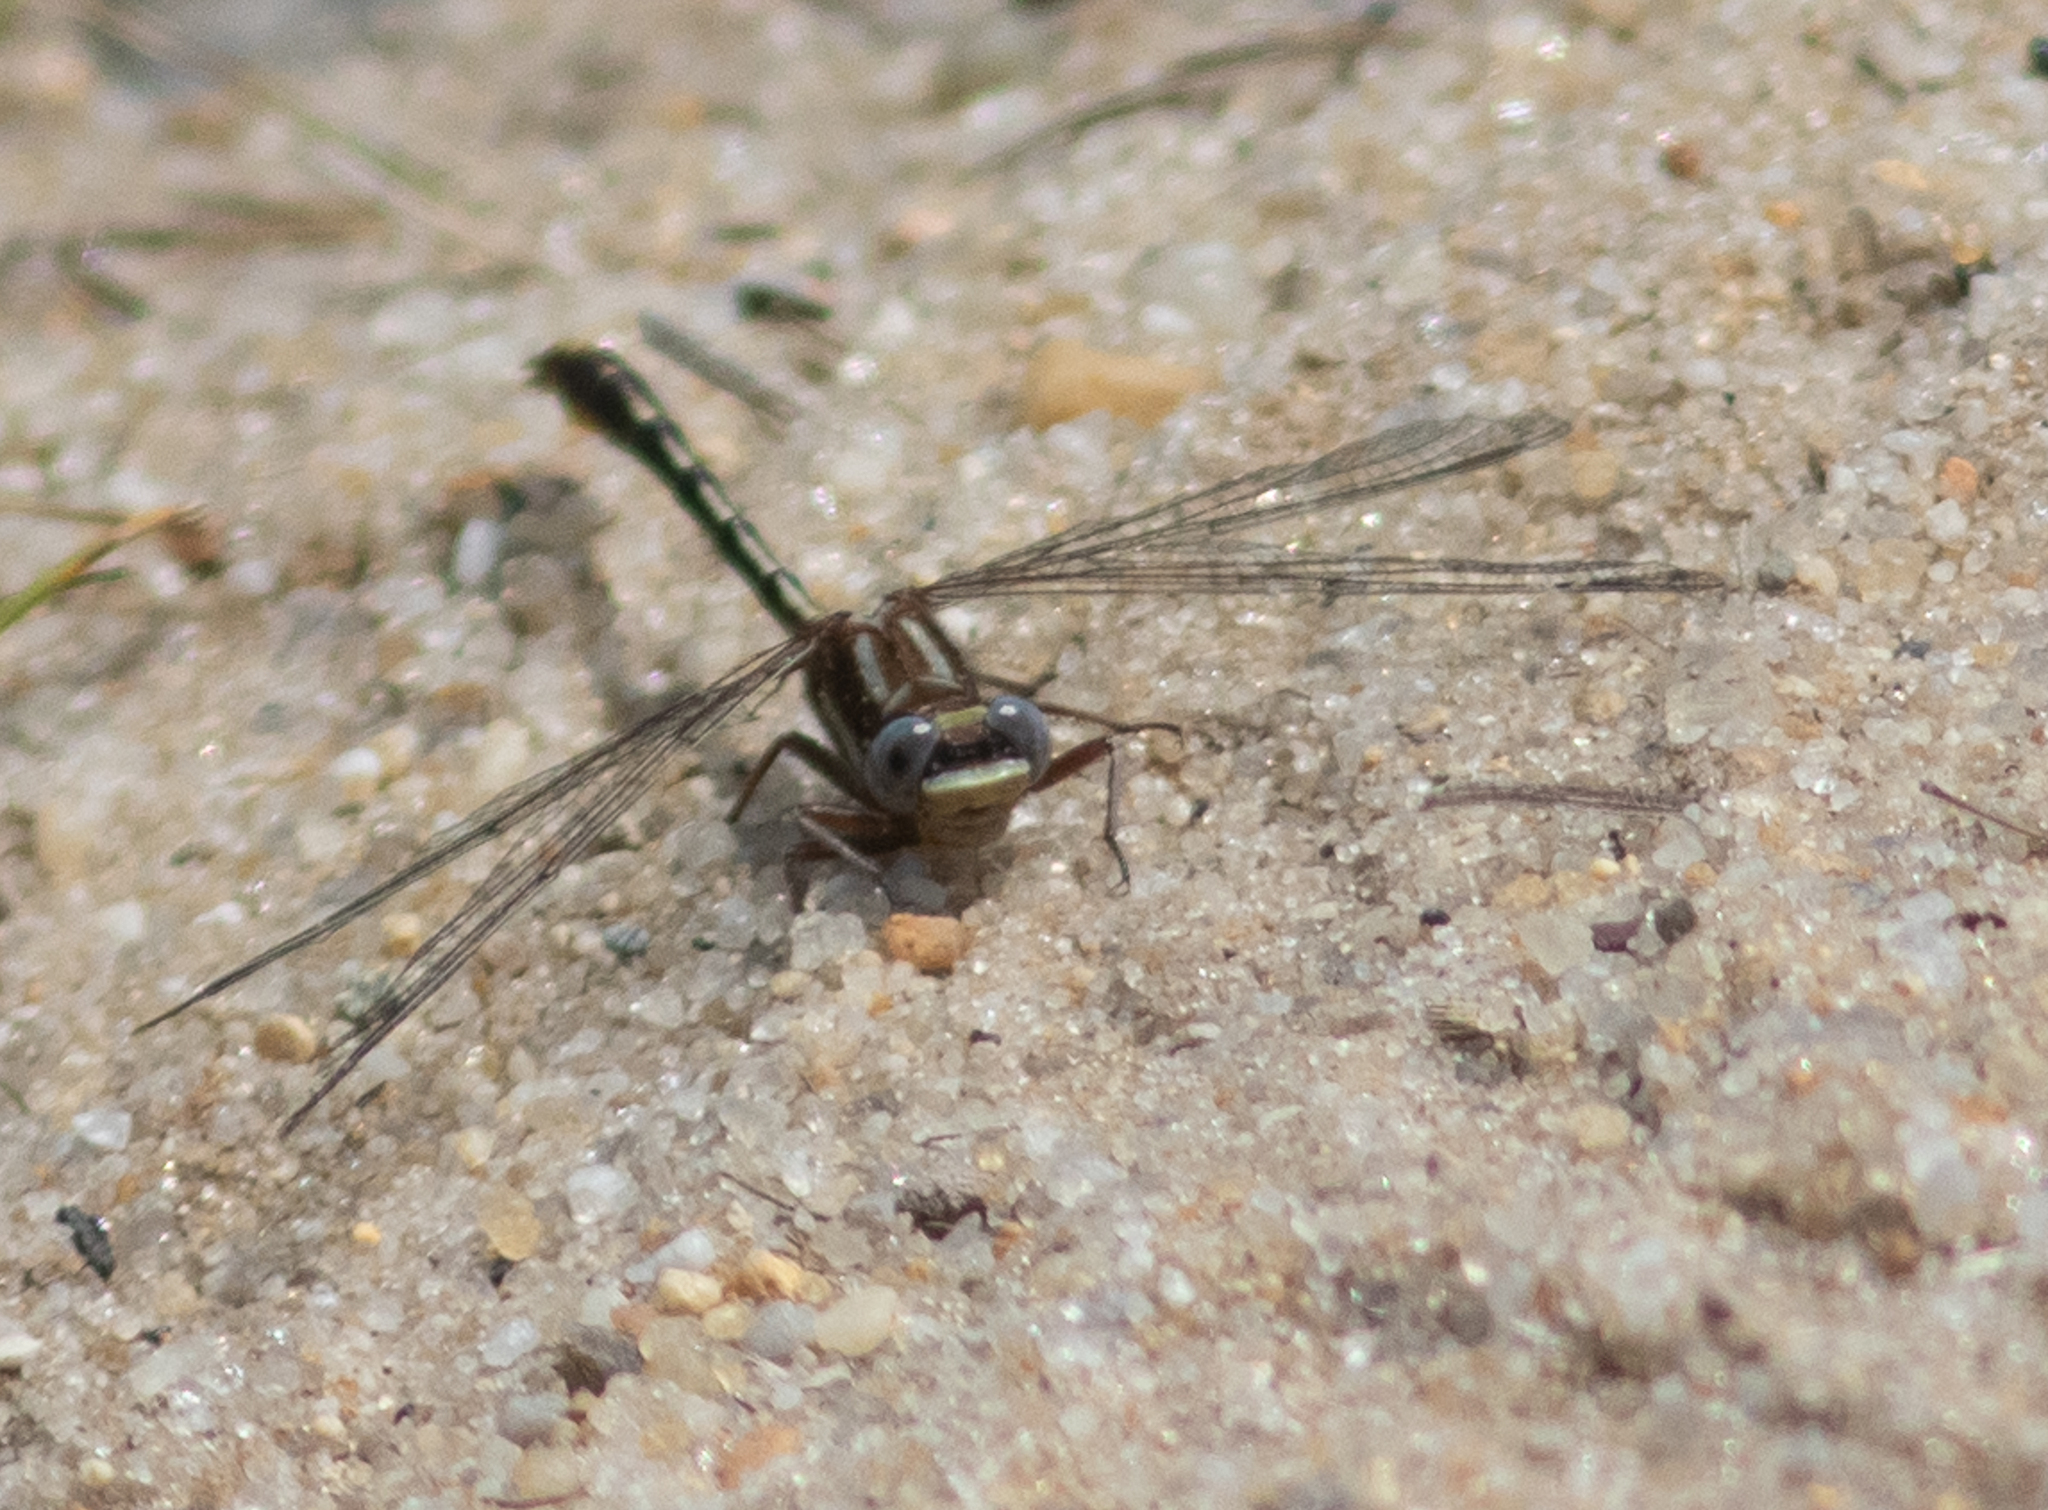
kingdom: Animalia
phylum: Arthropoda
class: Insecta
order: Odonata
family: Gomphidae
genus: Phanogomphus
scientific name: Phanogomphus exilis
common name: Lancet clubtail
